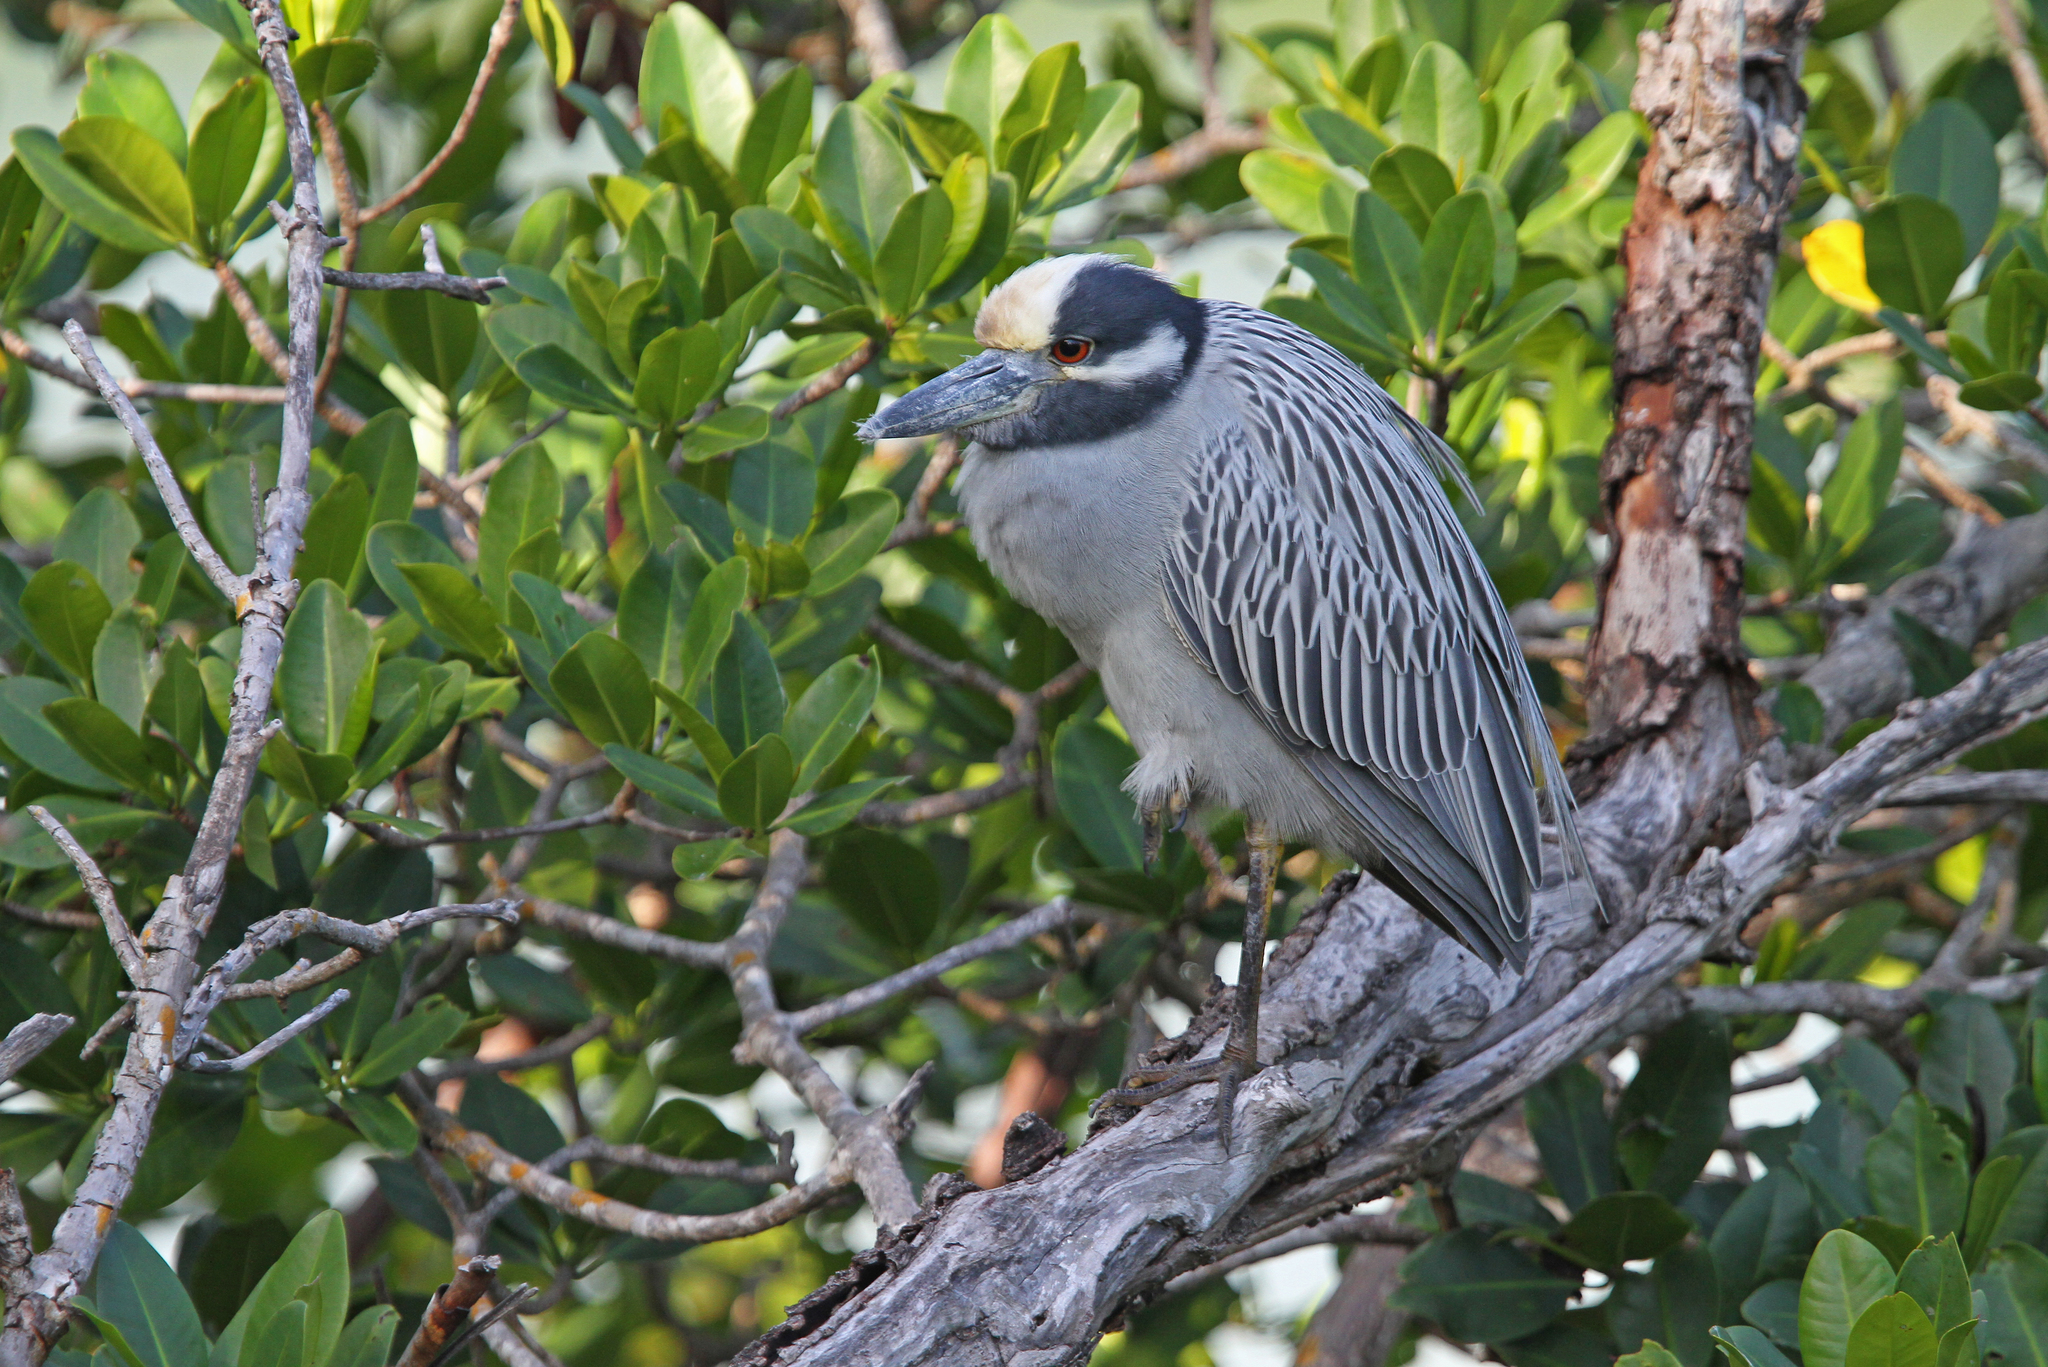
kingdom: Animalia
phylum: Chordata
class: Aves
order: Pelecaniformes
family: Ardeidae
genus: Nyctanassa
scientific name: Nyctanassa violacea
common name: Yellow-crowned night heron
